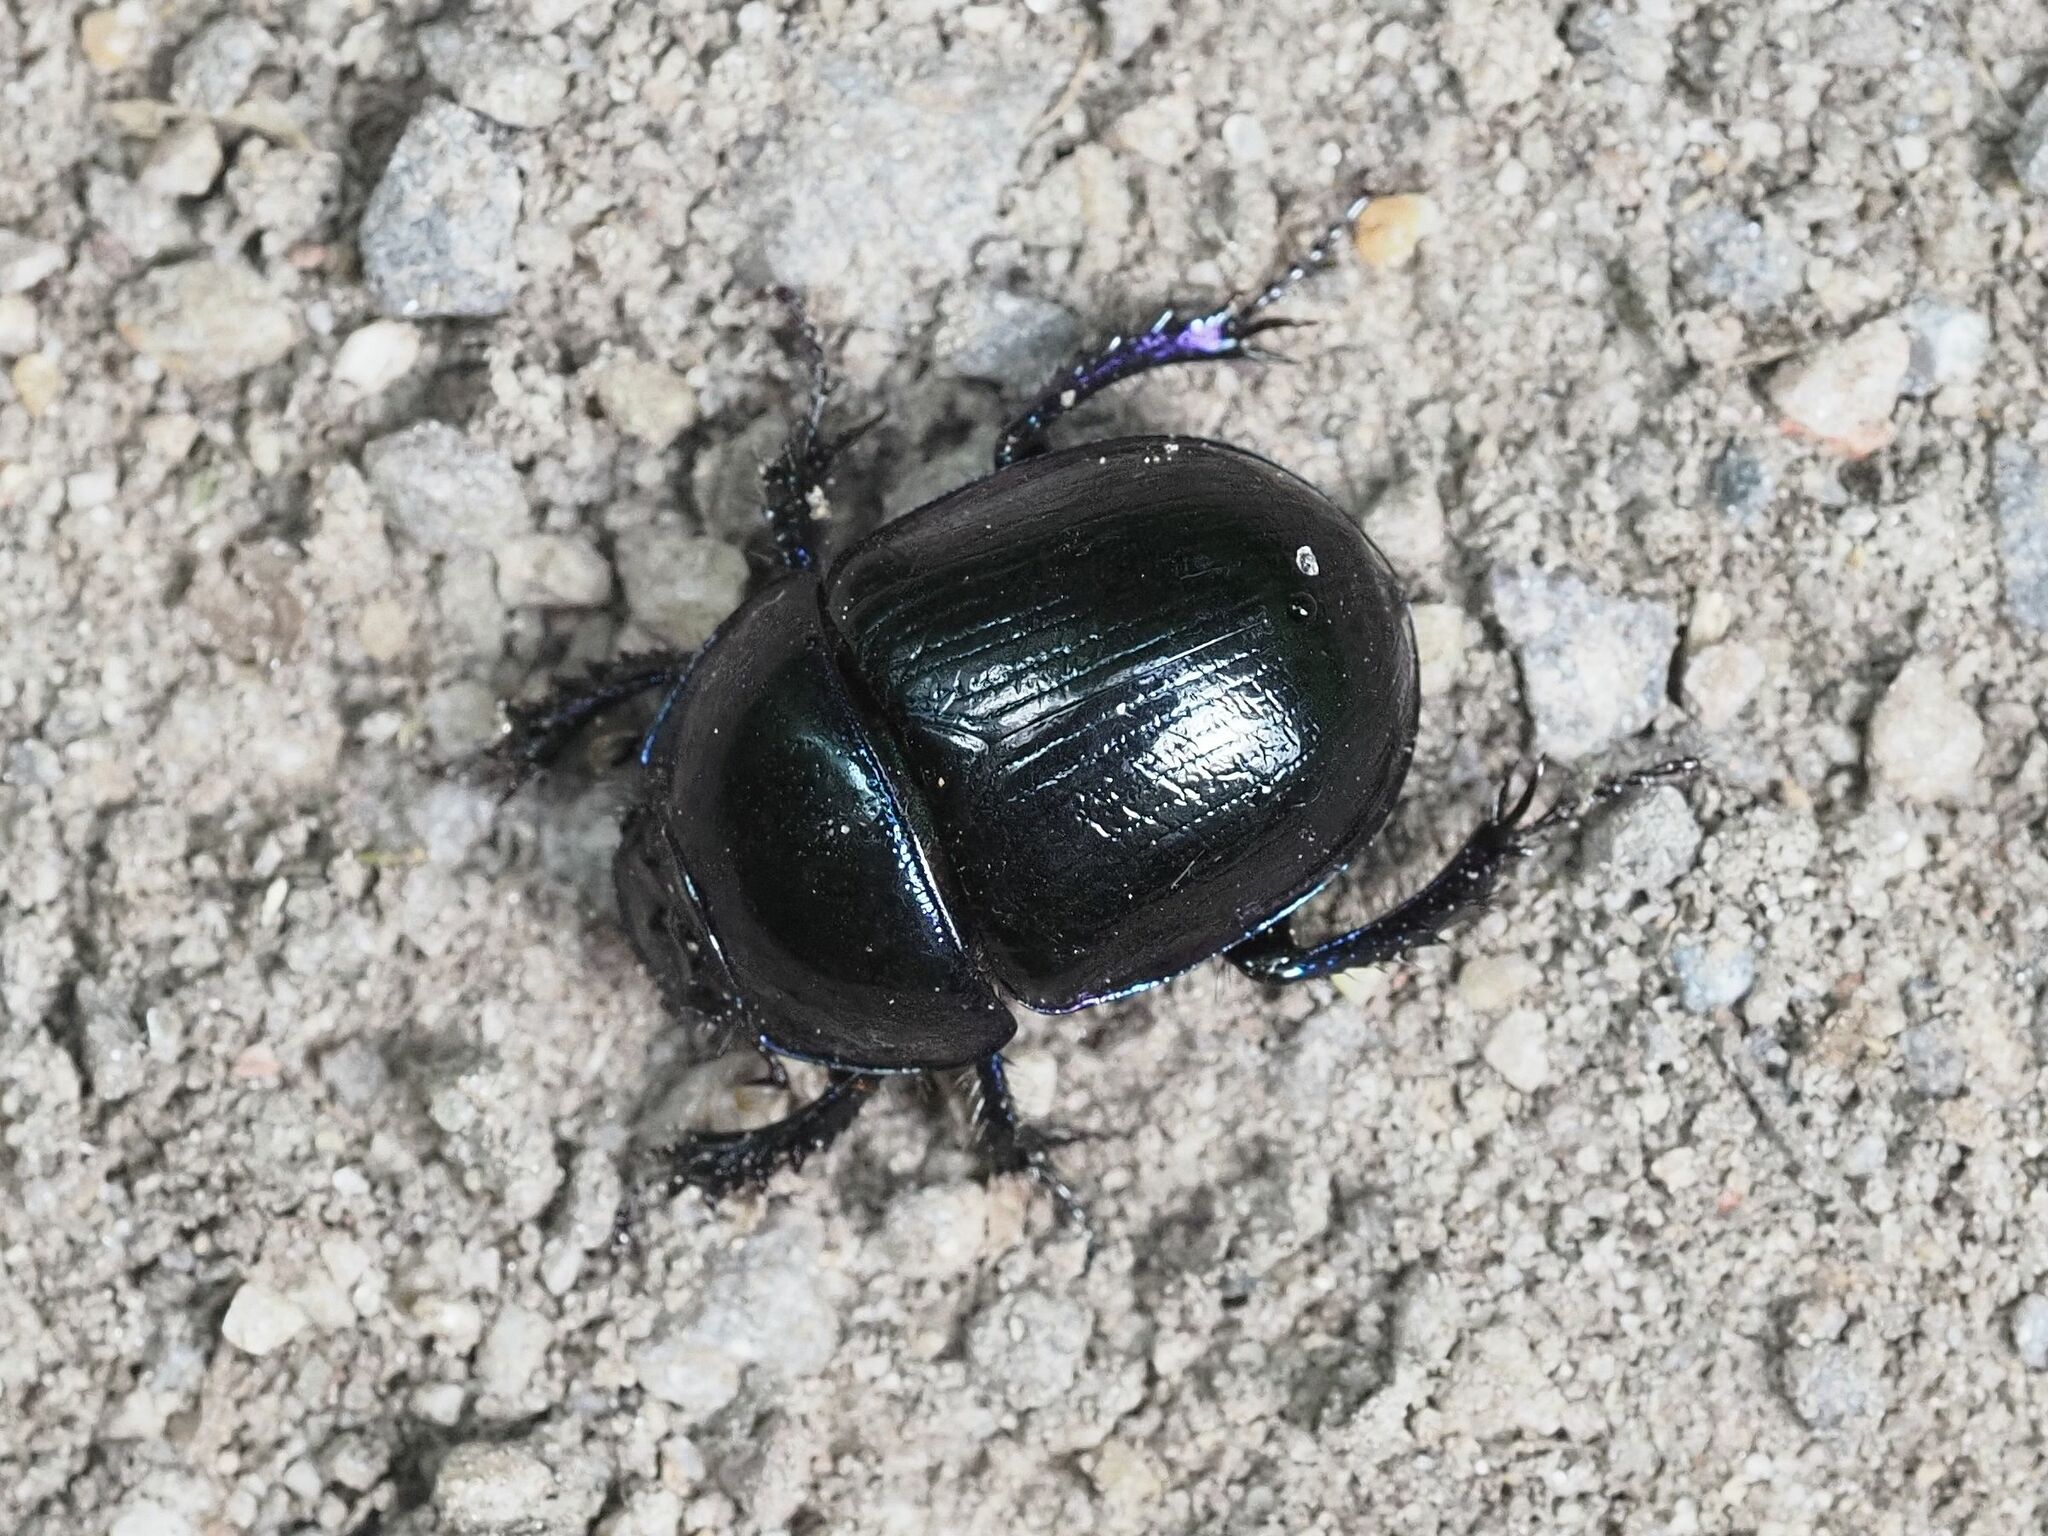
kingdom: Animalia
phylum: Arthropoda
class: Insecta
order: Coleoptera
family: Geotrupidae
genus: Anoplotrupes
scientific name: Anoplotrupes stercorosus
